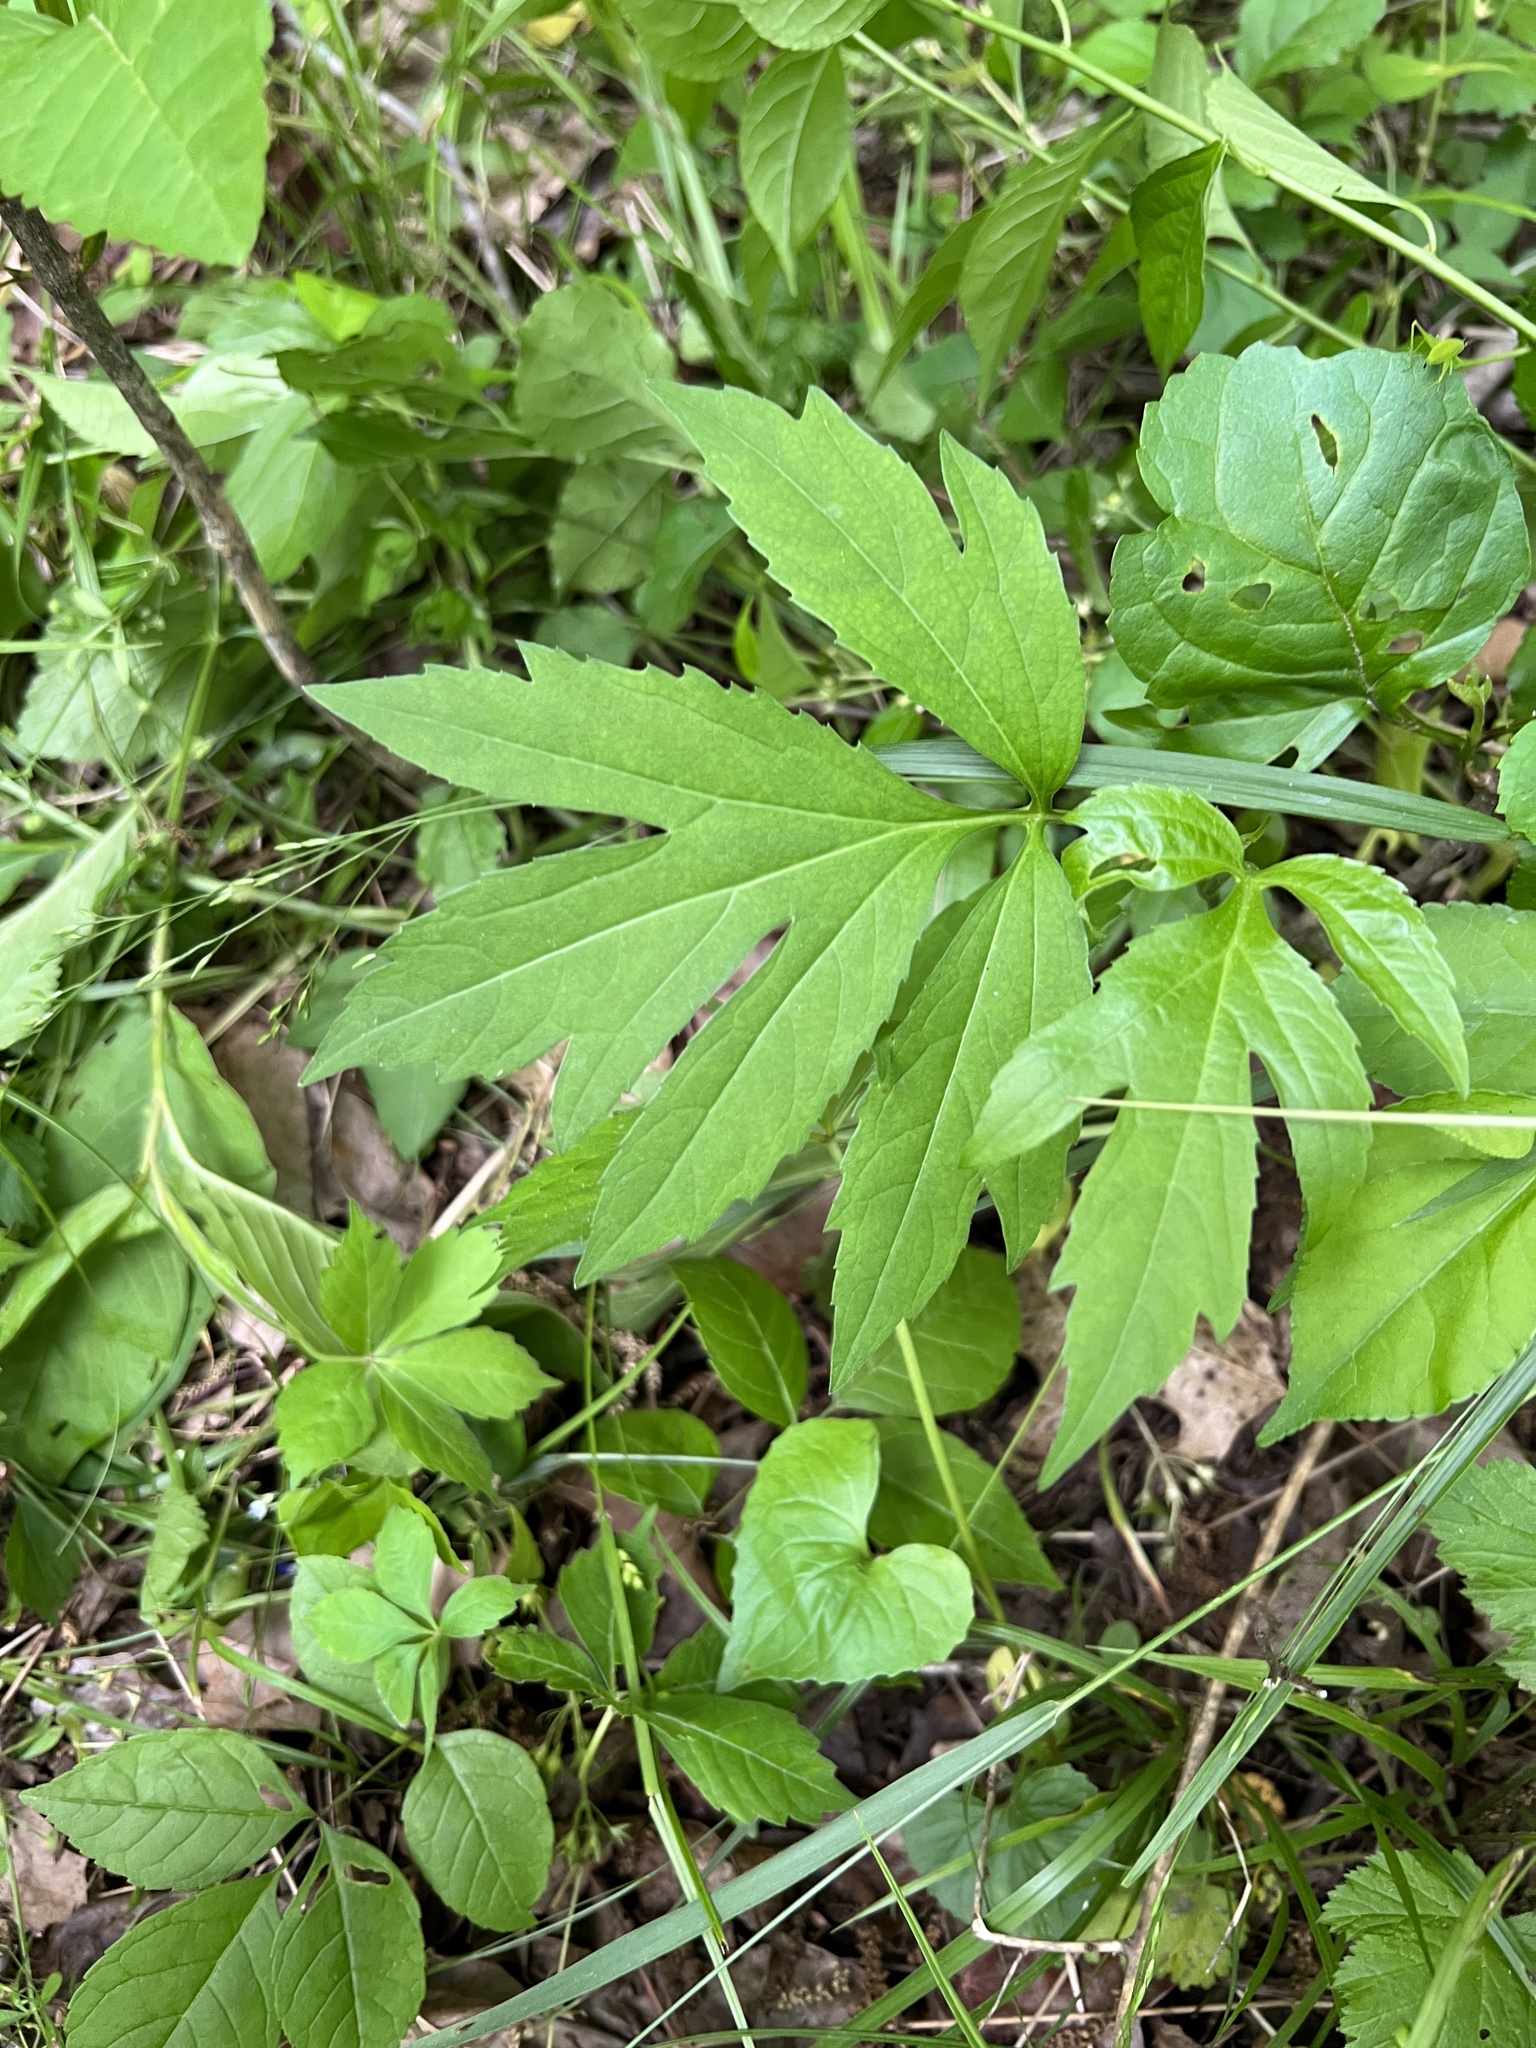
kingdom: Plantae
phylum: Tracheophyta
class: Magnoliopsida
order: Asterales
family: Asteraceae
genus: Rudbeckia
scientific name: Rudbeckia laciniata
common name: Coneflower
